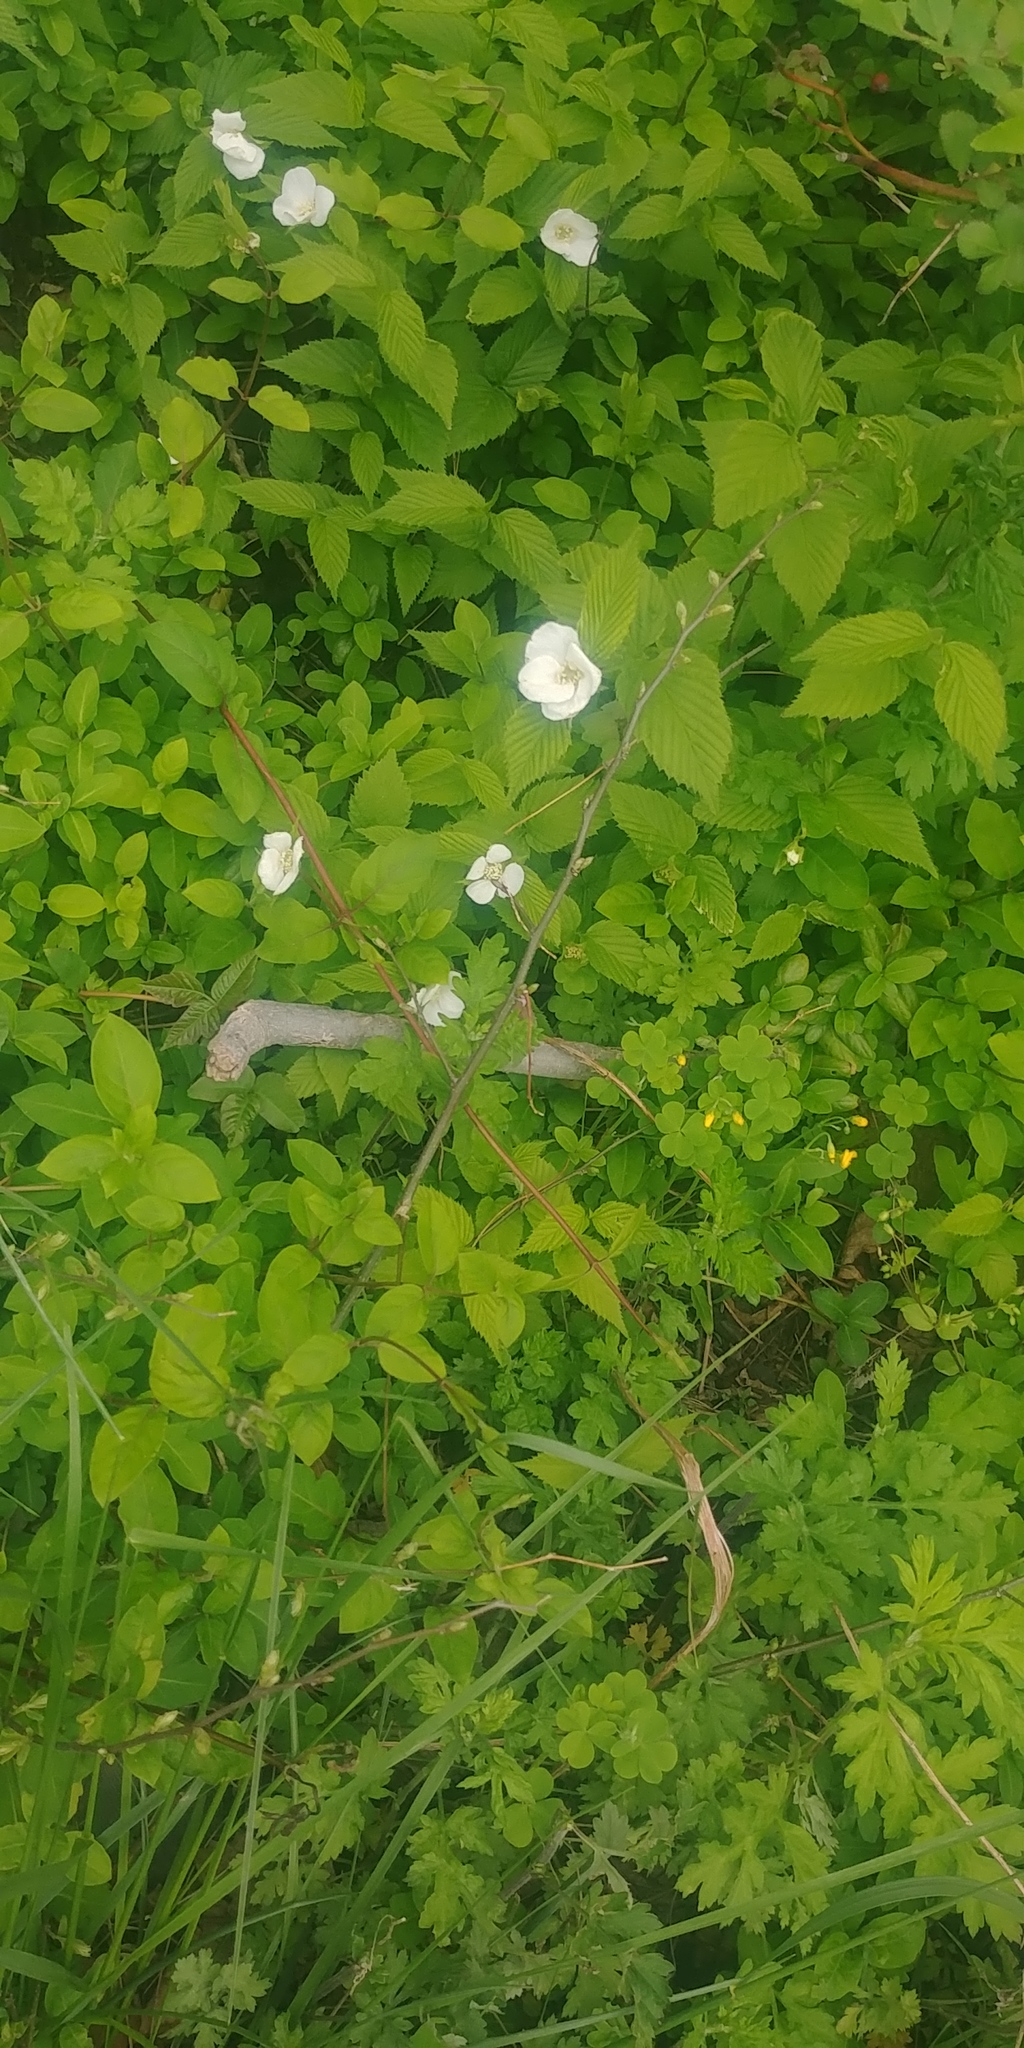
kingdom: Plantae
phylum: Tracheophyta
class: Magnoliopsida
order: Rosales
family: Rosaceae
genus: Rhodotypos
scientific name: Rhodotypos scandens
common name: Jetbead
